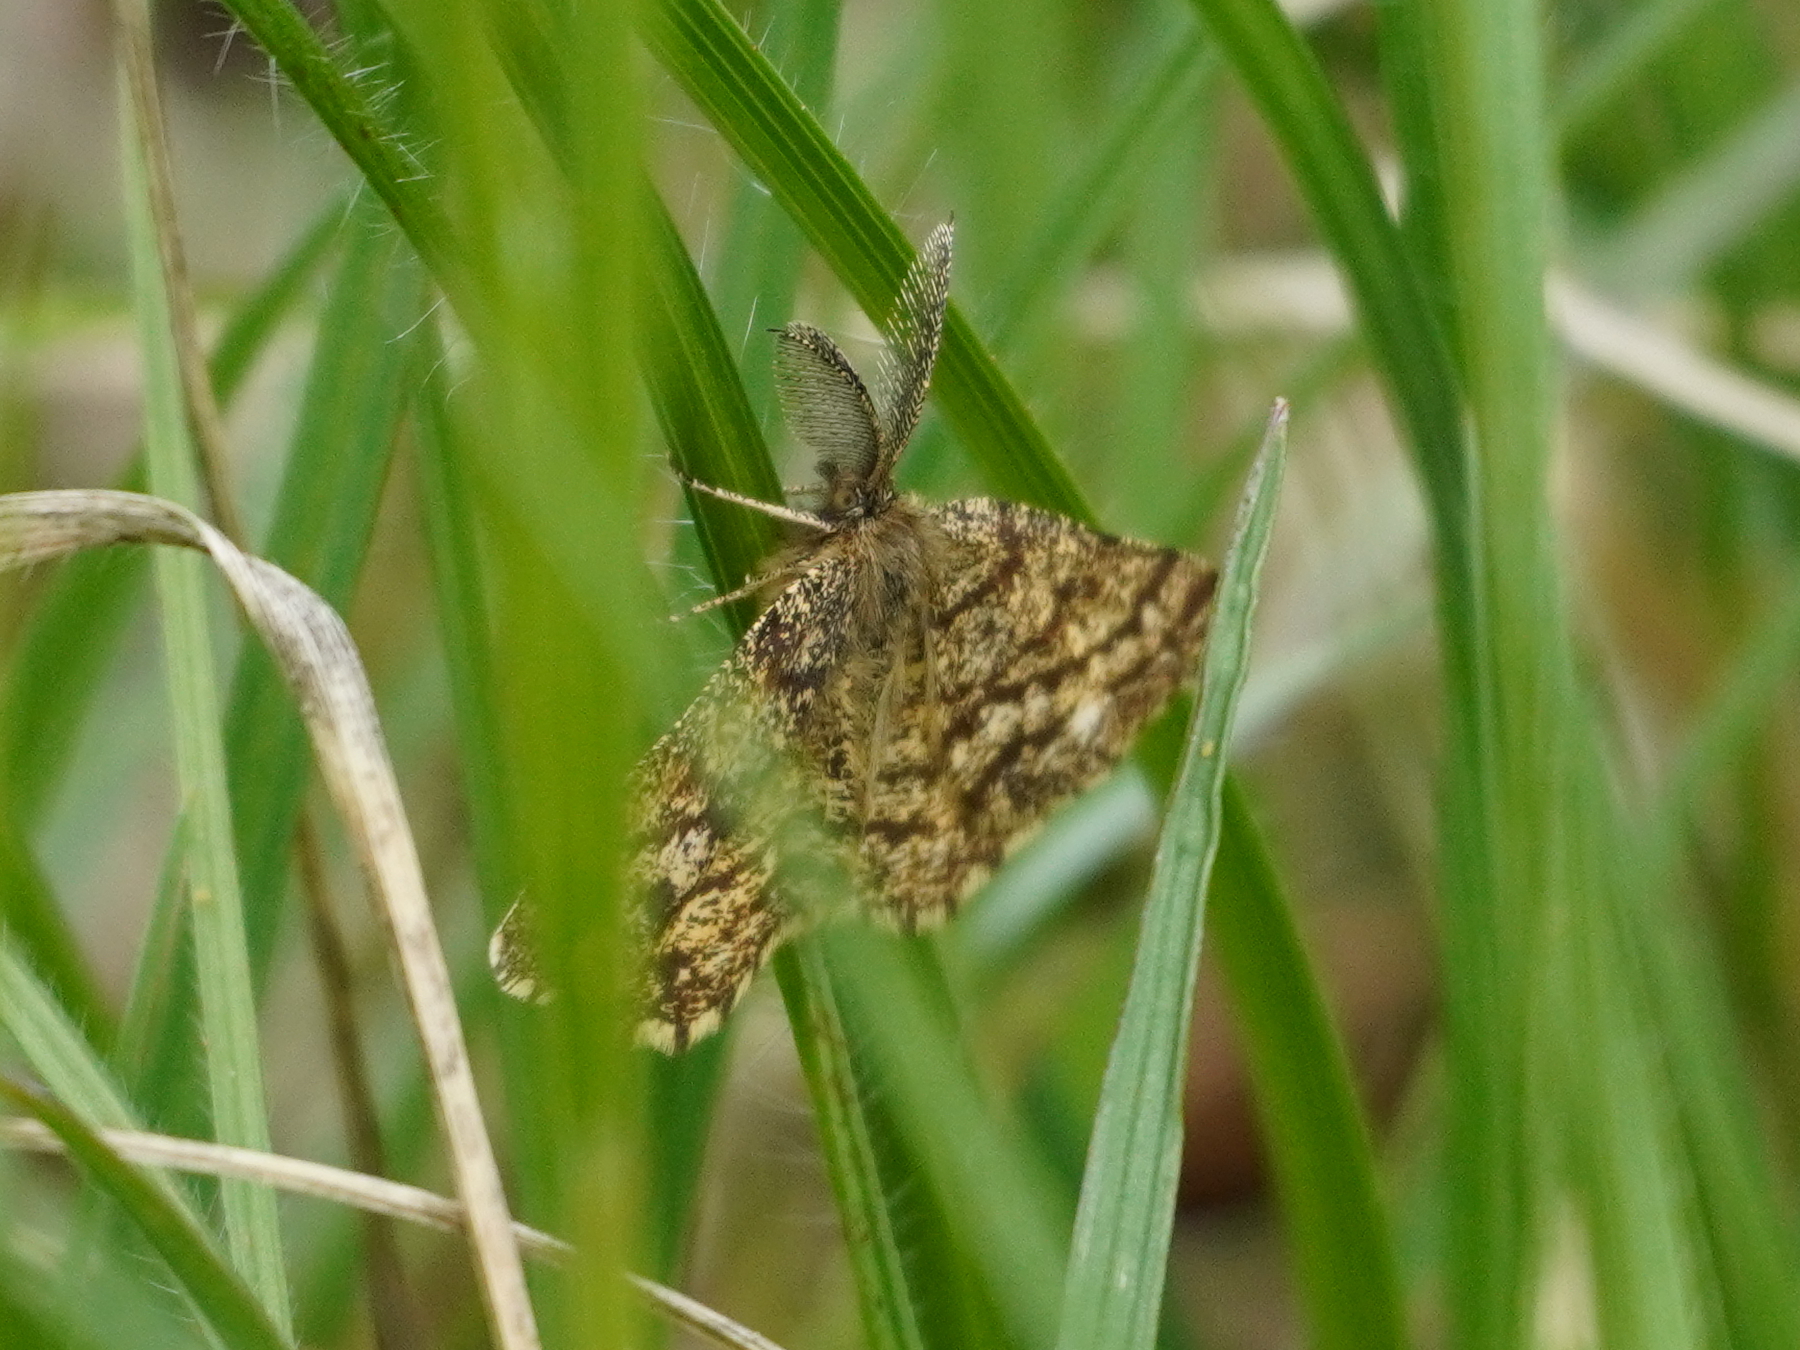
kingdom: Animalia
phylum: Arthropoda
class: Insecta
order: Lepidoptera
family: Geometridae
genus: Ematurga
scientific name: Ematurga atomaria
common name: Common heath
